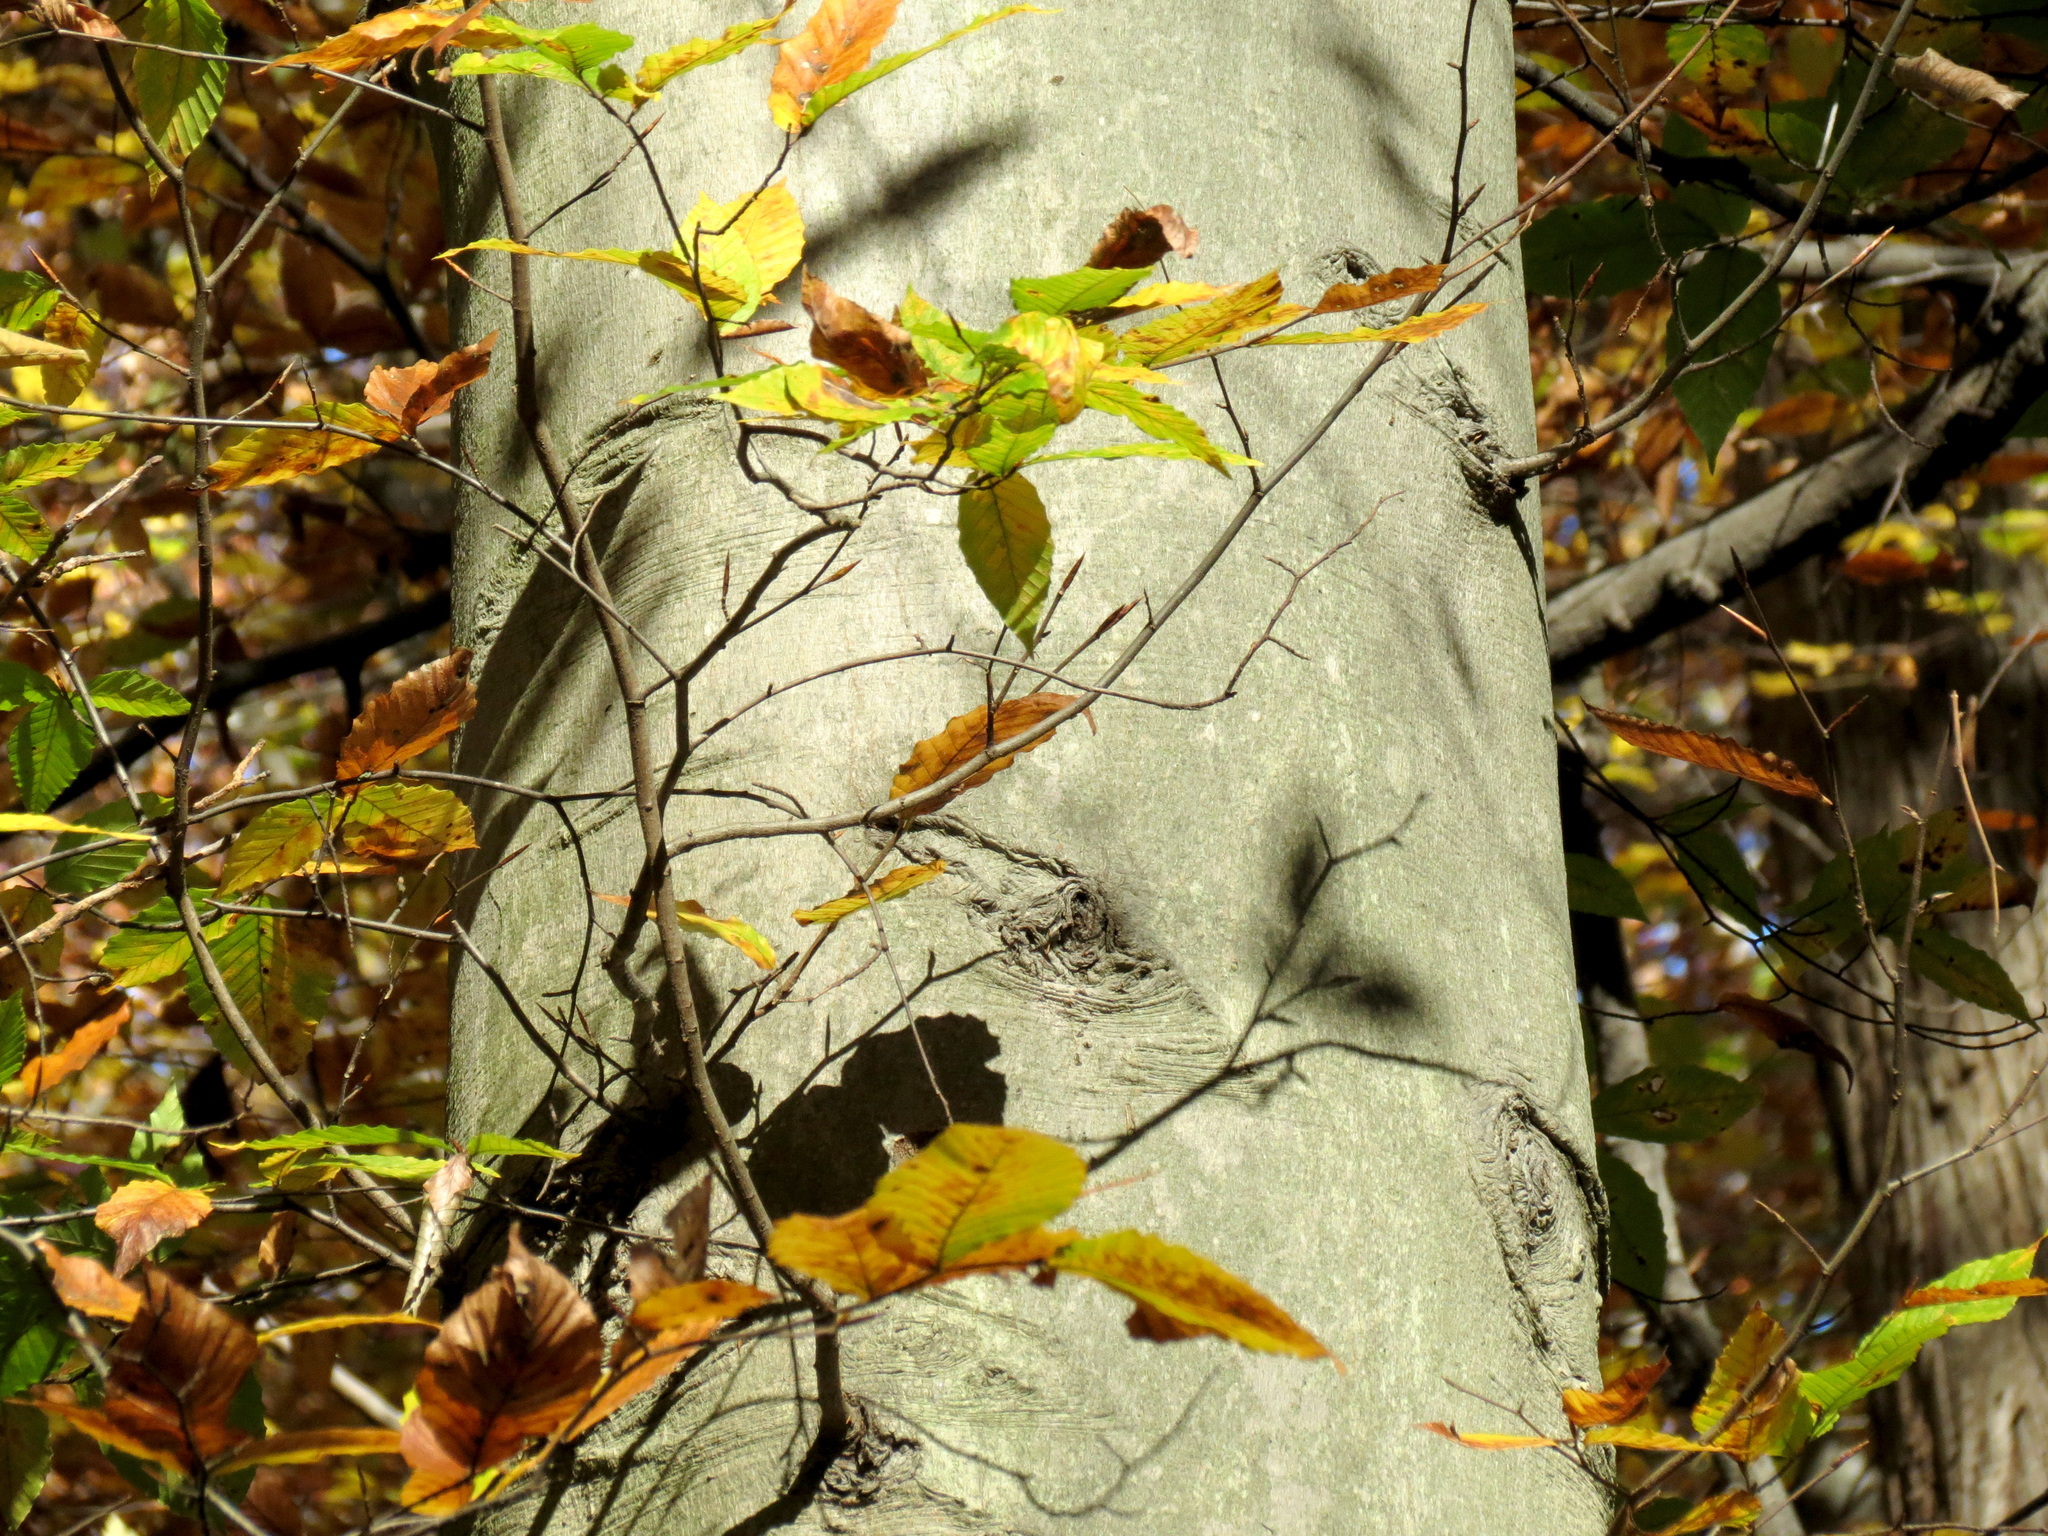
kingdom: Plantae
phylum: Tracheophyta
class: Magnoliopsida
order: Fagales
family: Fagaceae
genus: Fagus
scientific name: Fagus grandifolia
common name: American beech
